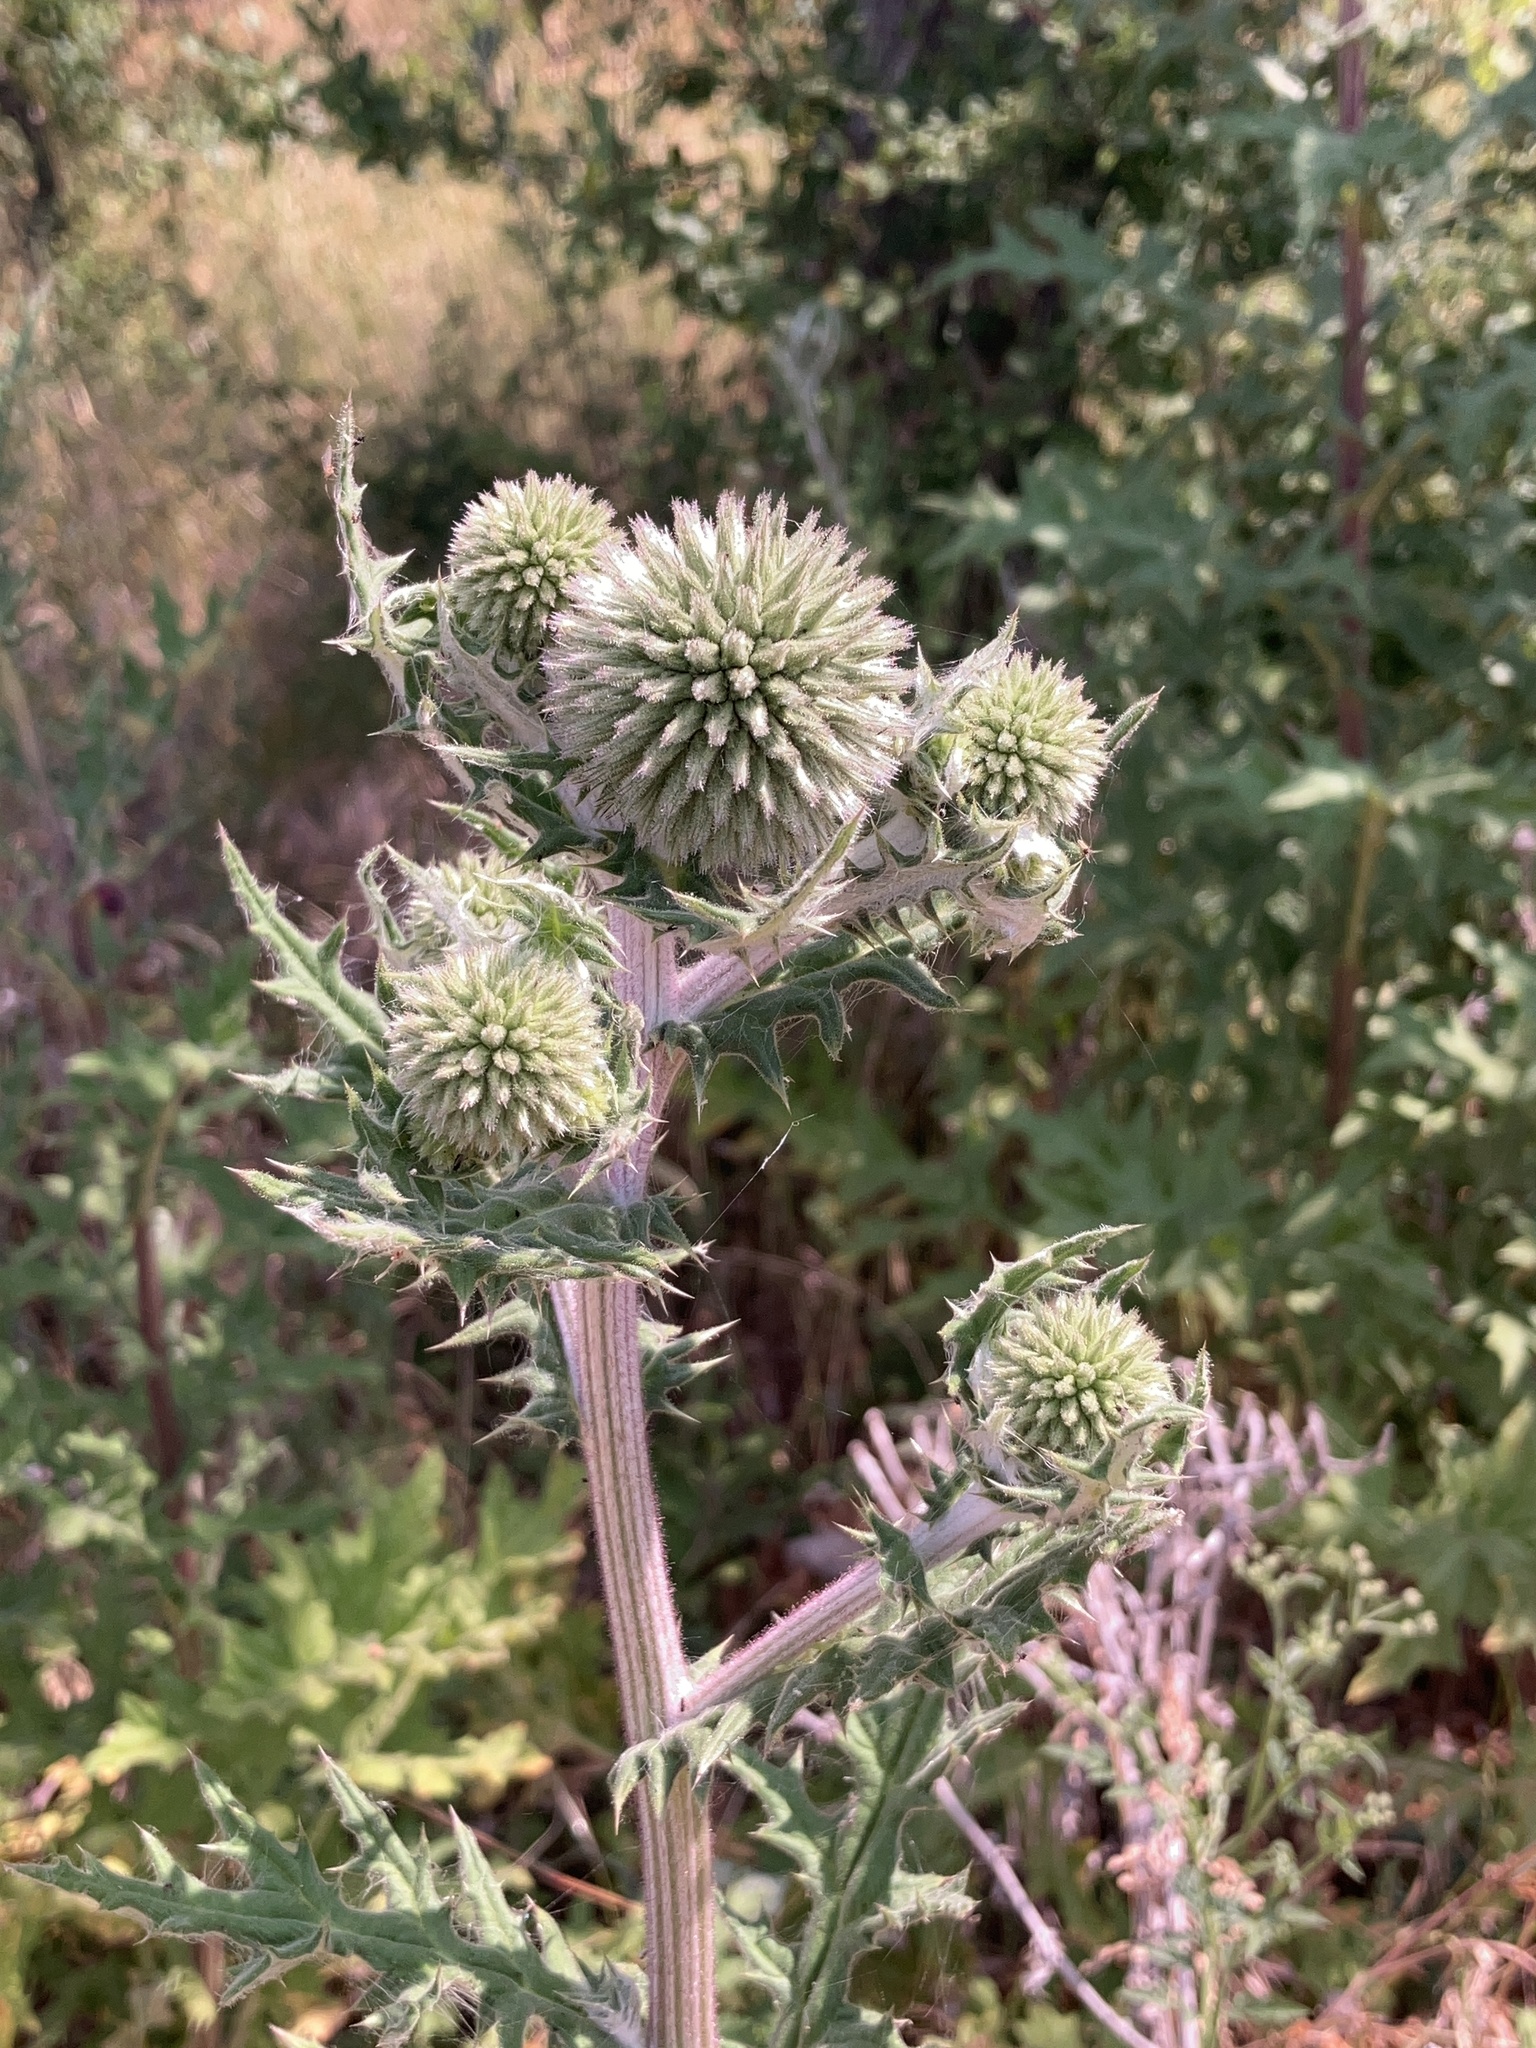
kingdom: Plantae
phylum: Tracheophyta
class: Magnoliopsida
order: Asterales
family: Asteraceae
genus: Echinops
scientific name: Echinops sphaerocephalus
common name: Glandular globe-thistle
